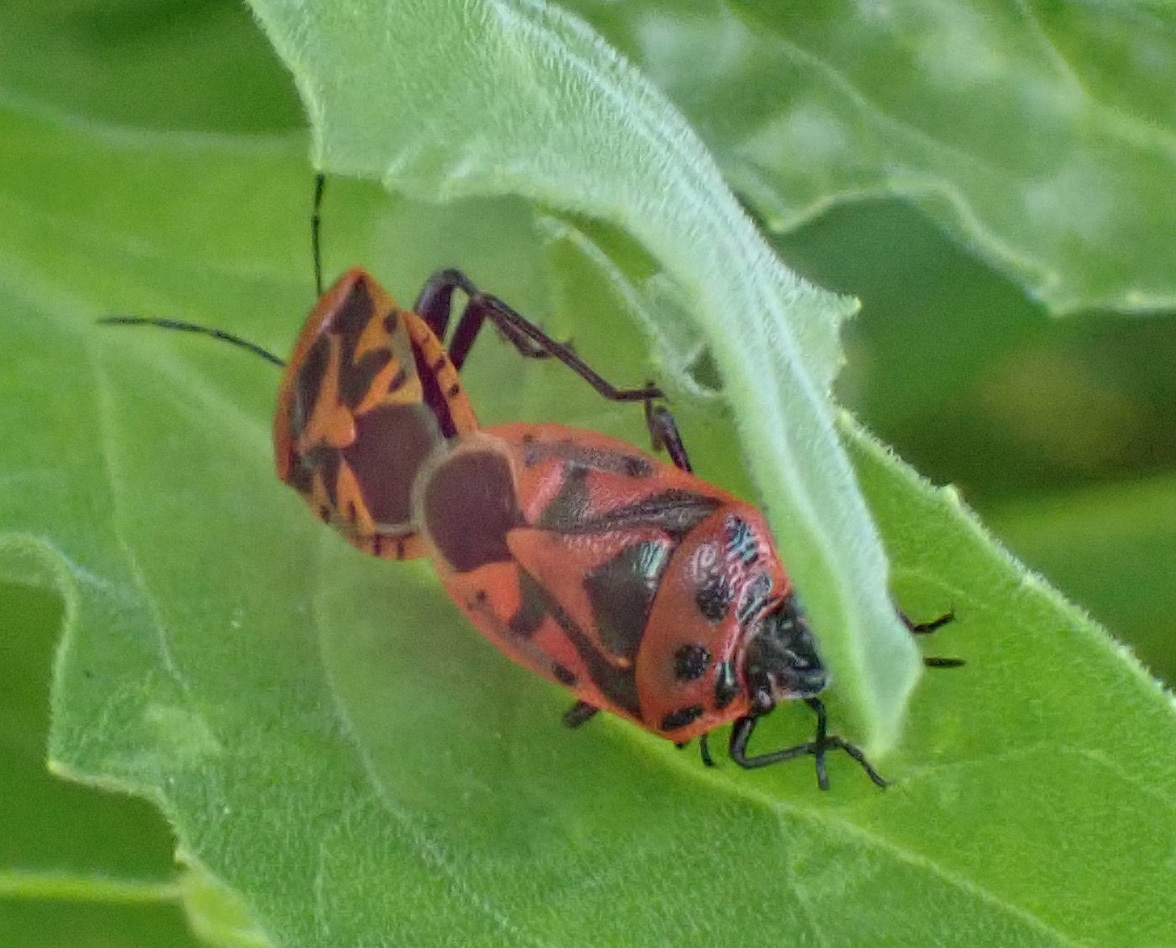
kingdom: Animalia
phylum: Arthropoda
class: Insecta
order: Hemiptera
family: Pentatomidae
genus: Eurydema
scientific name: Eurydema ornata
